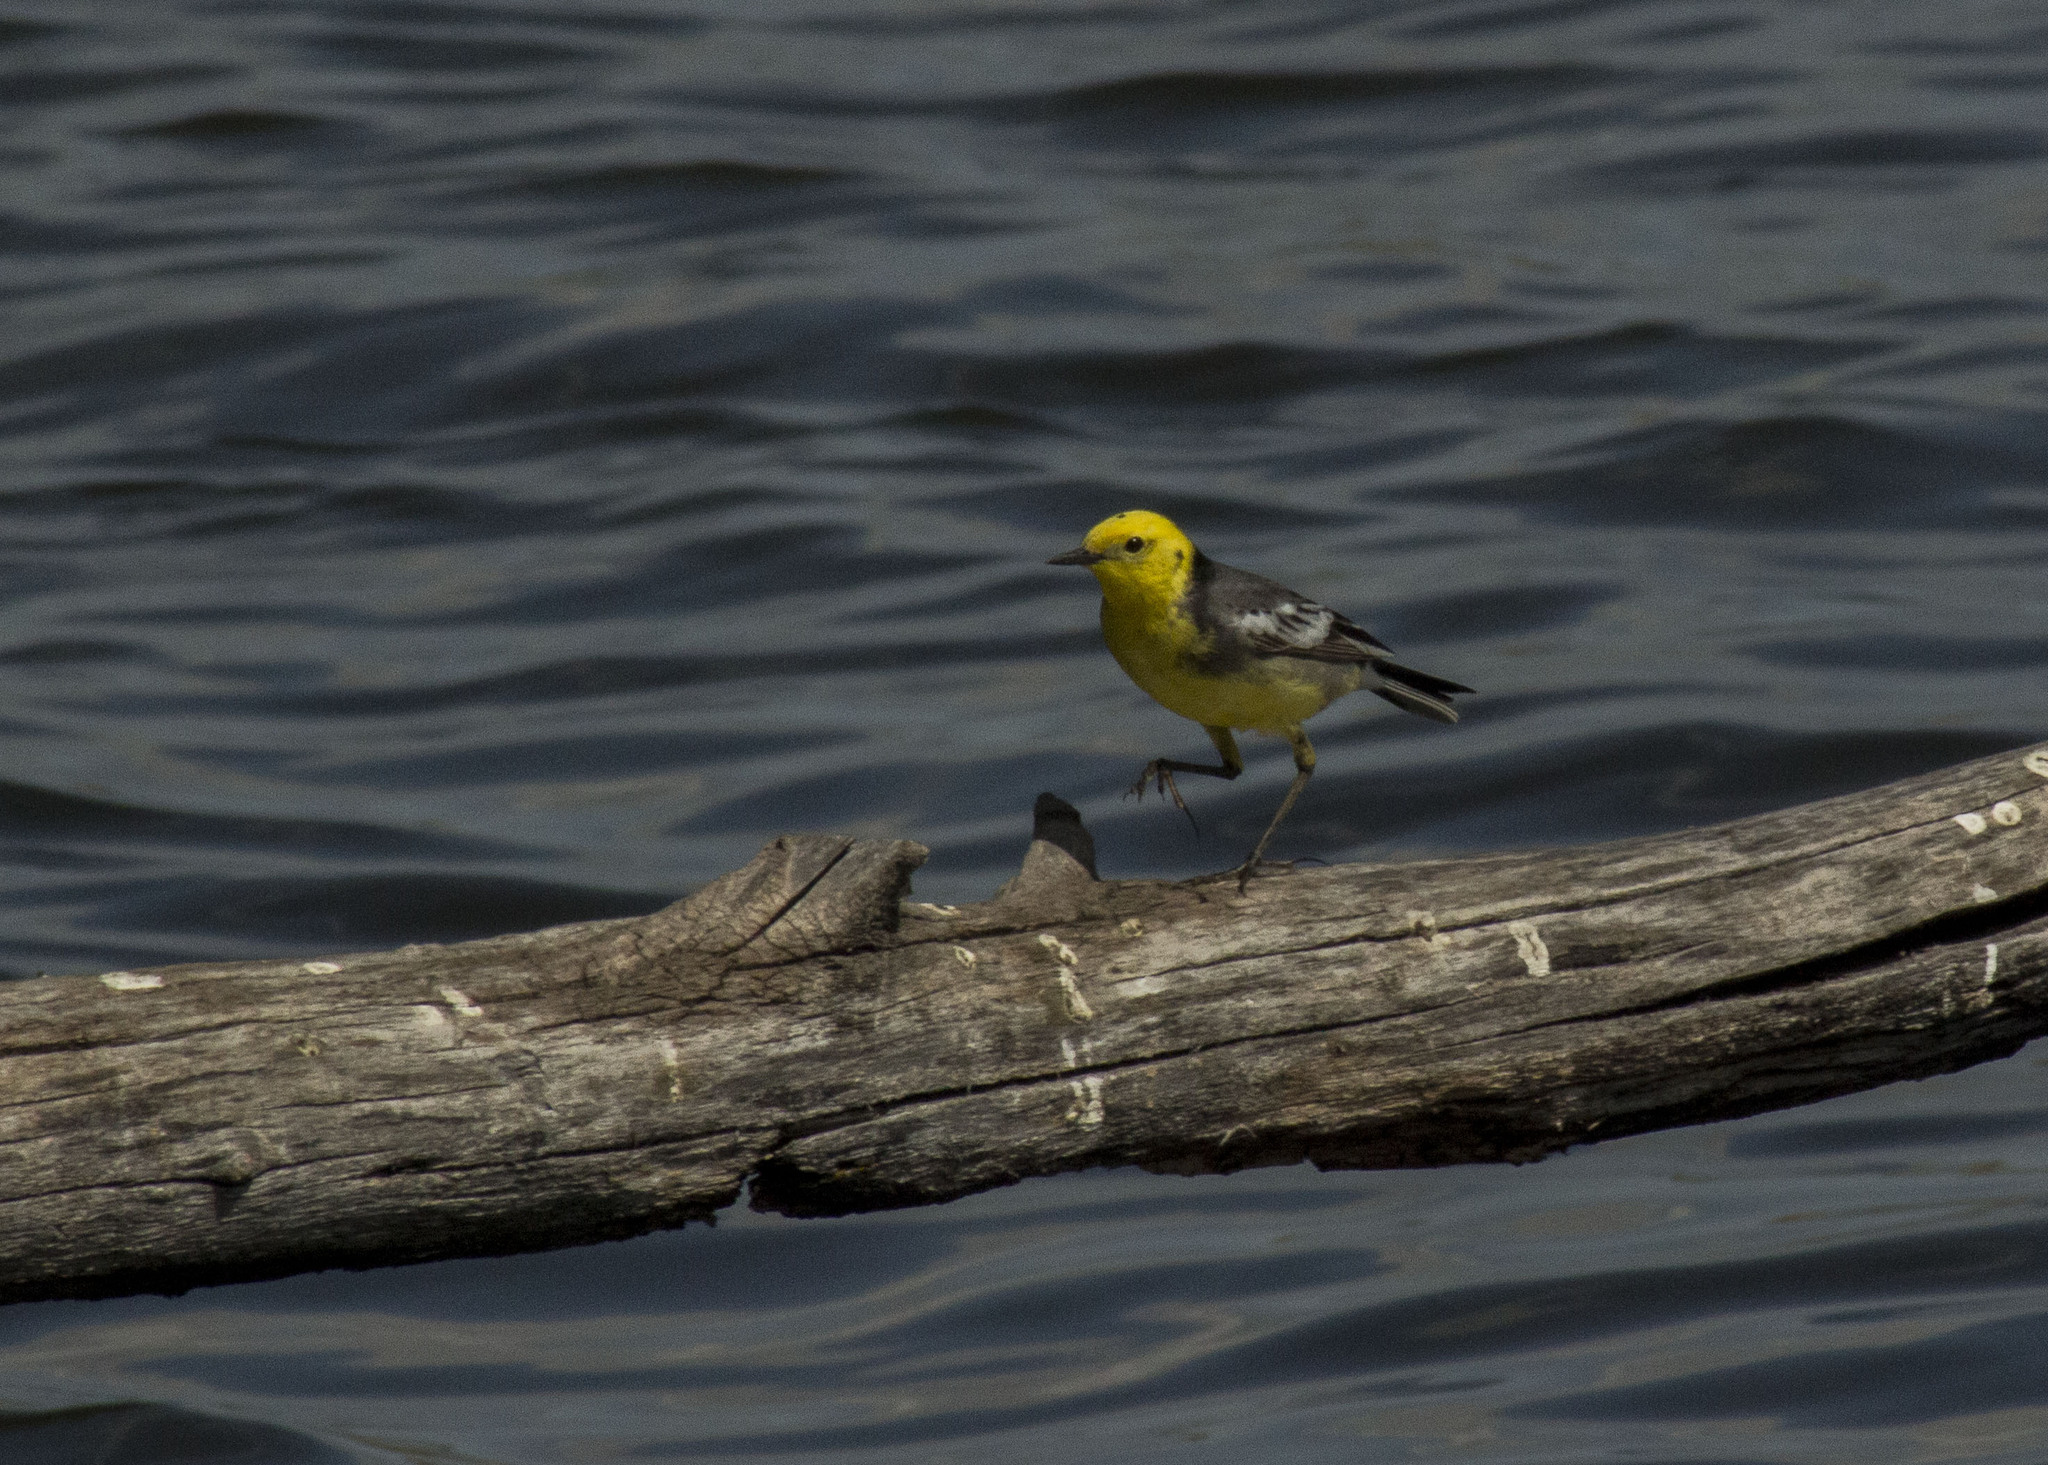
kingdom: Animalia
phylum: Chordata
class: Aves
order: Passeriformes
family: Motacillidae
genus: Motacilla
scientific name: Motacilla citreola
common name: Citrine wagtail
